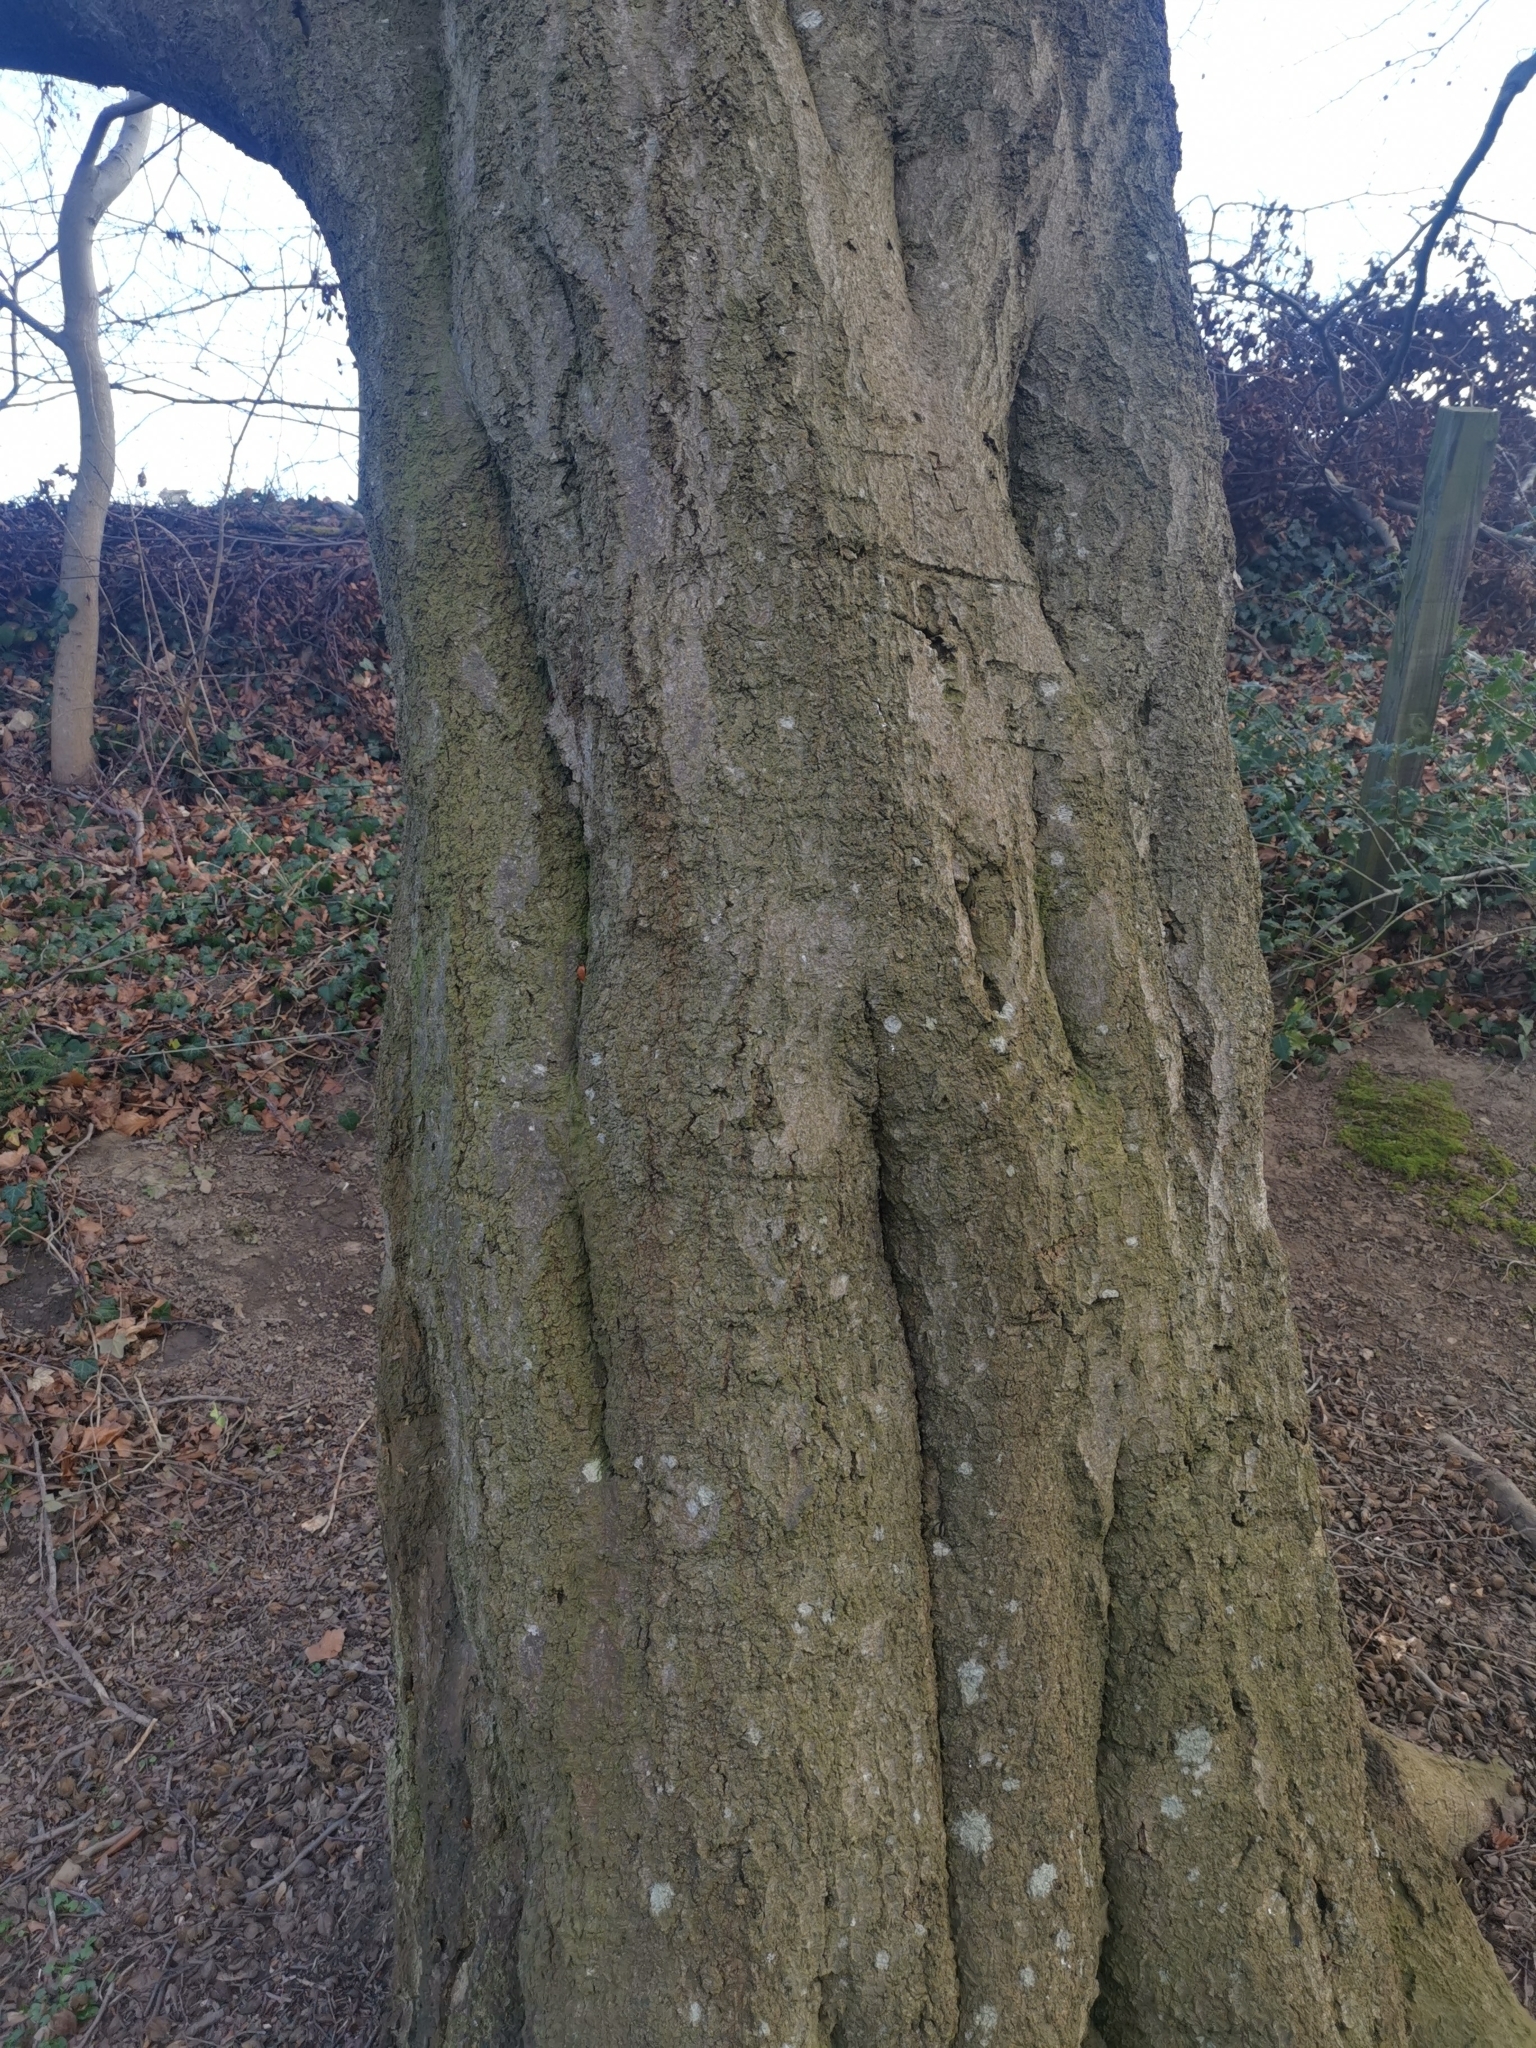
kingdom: Plantae
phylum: Tracheophyta
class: Magnoliopsida
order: Fagales
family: Fagaceae
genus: Fagus
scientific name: Fagus sylvatica
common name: Beech
